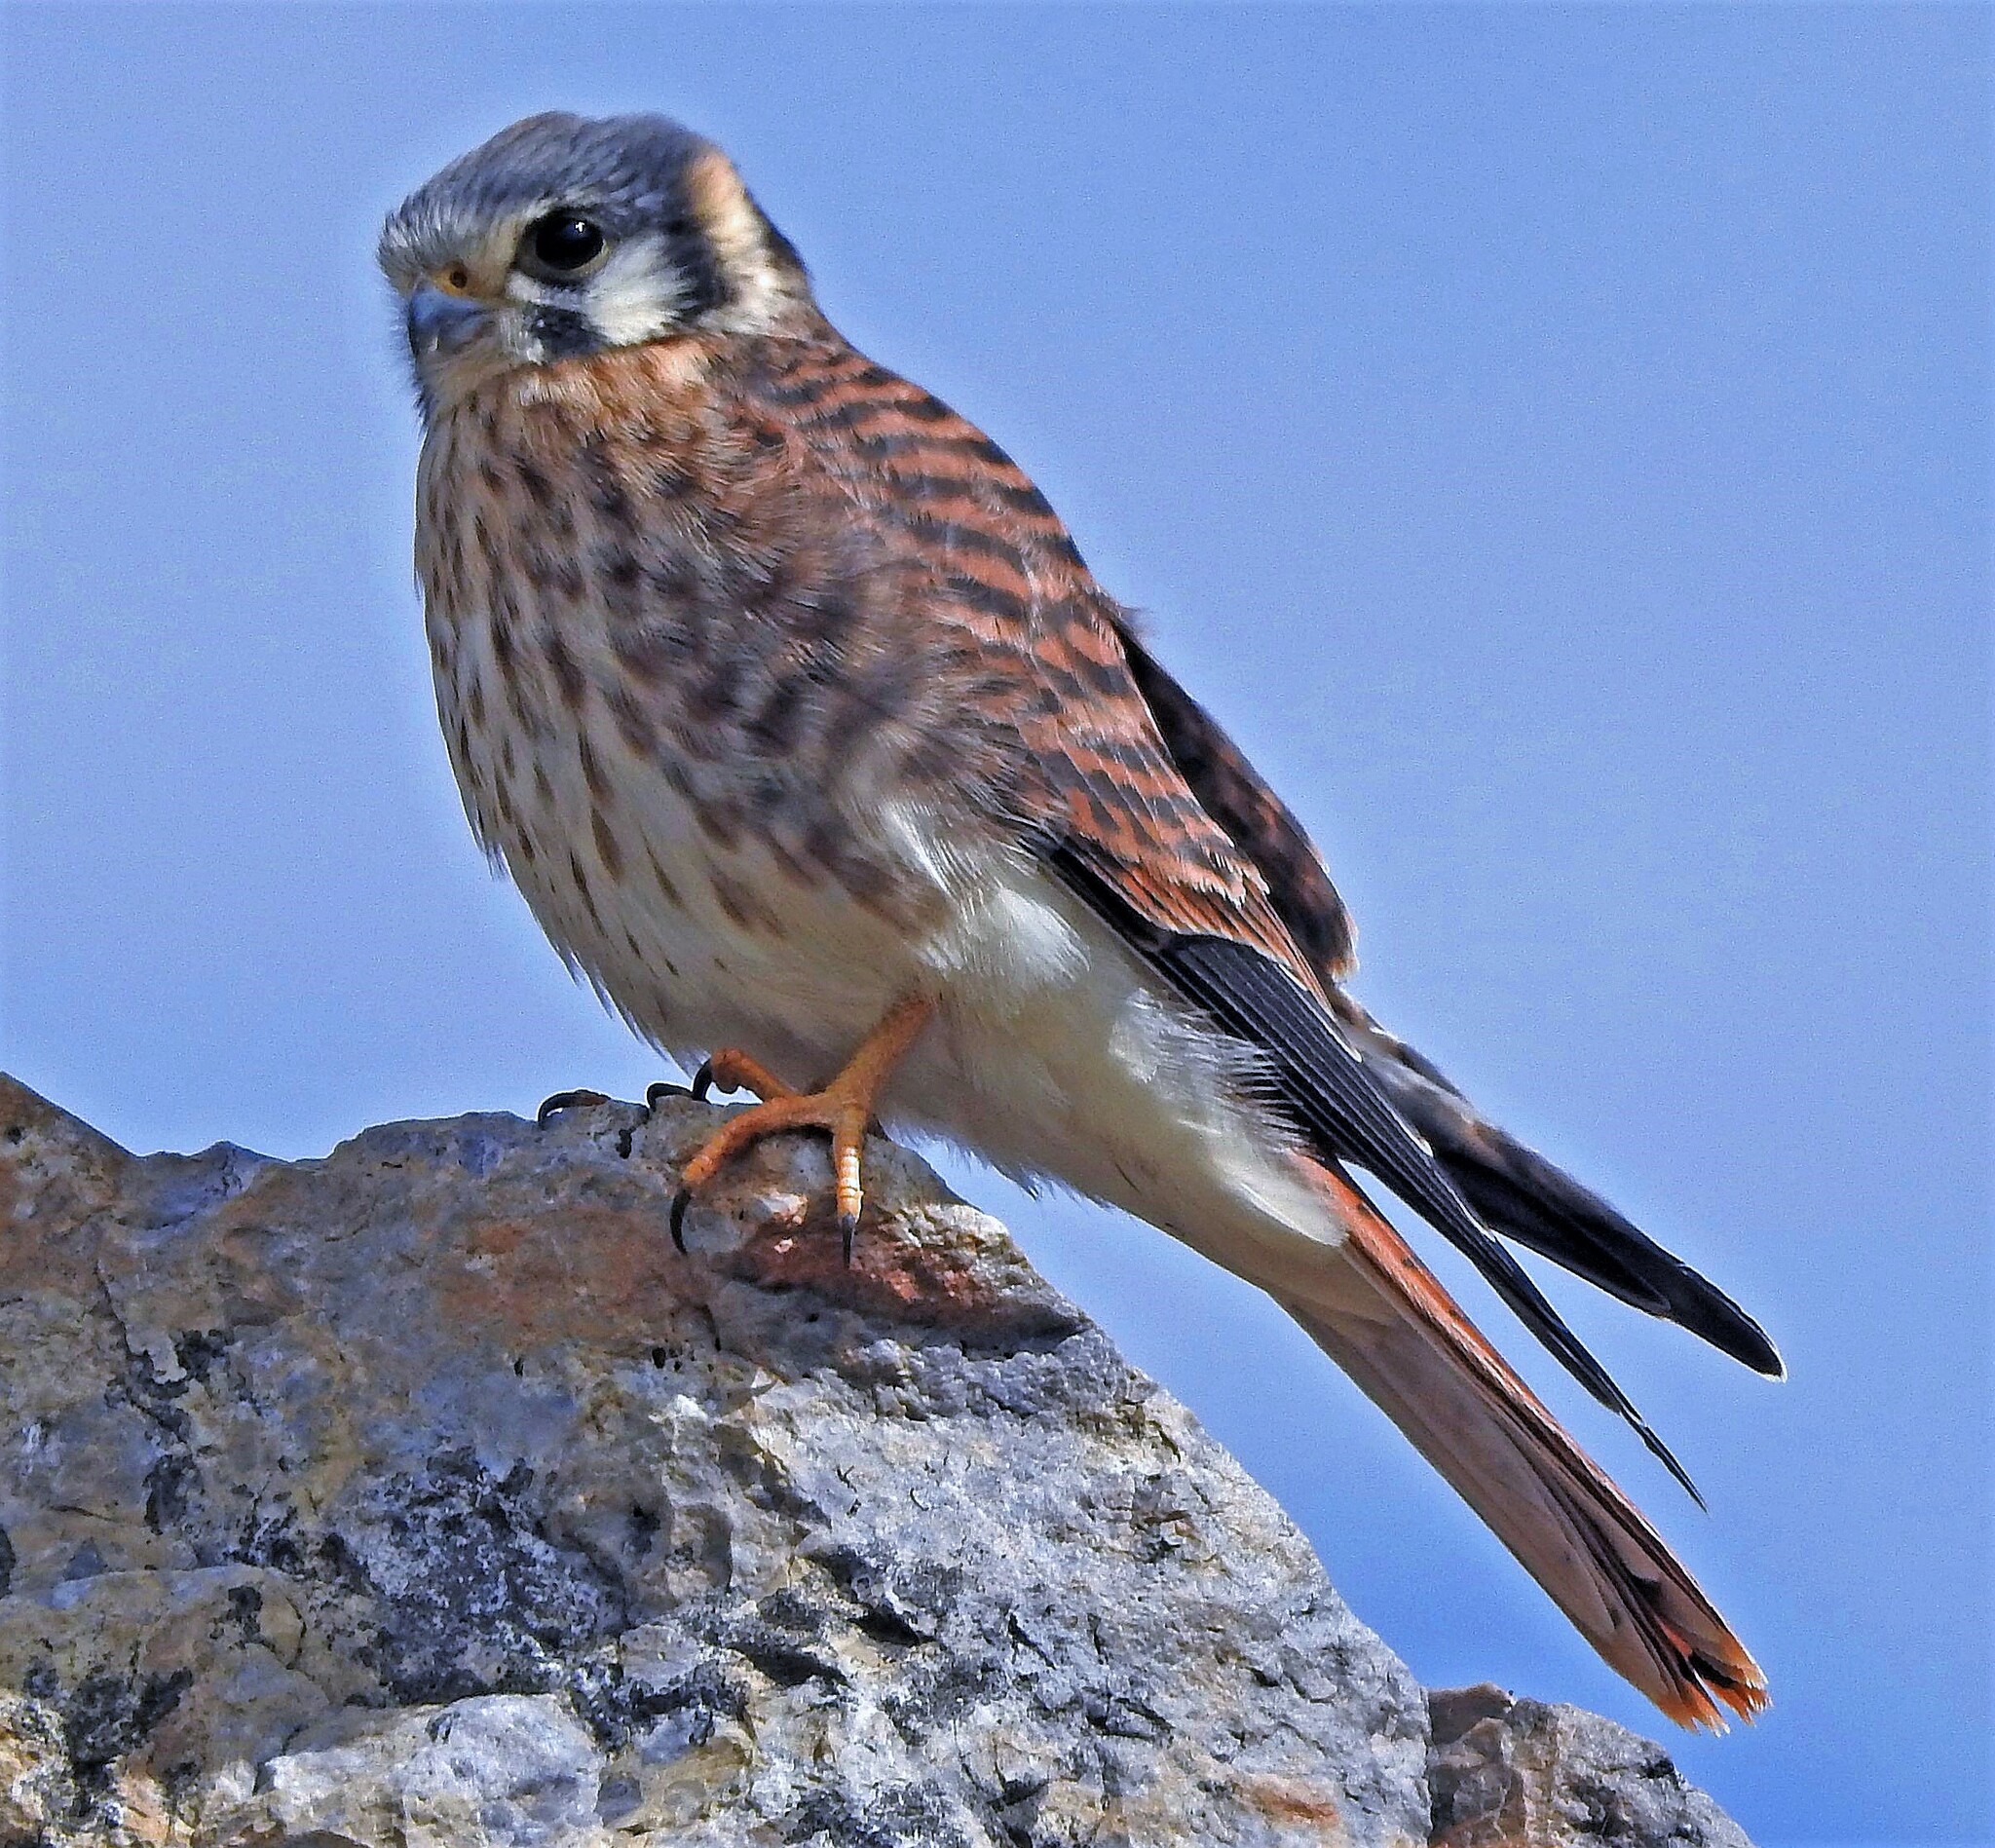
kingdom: Animalia
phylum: Chordata
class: Aves
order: Falconiformes
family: Falconidae
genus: Falco
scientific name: Falco sparverius
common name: American kestrel
